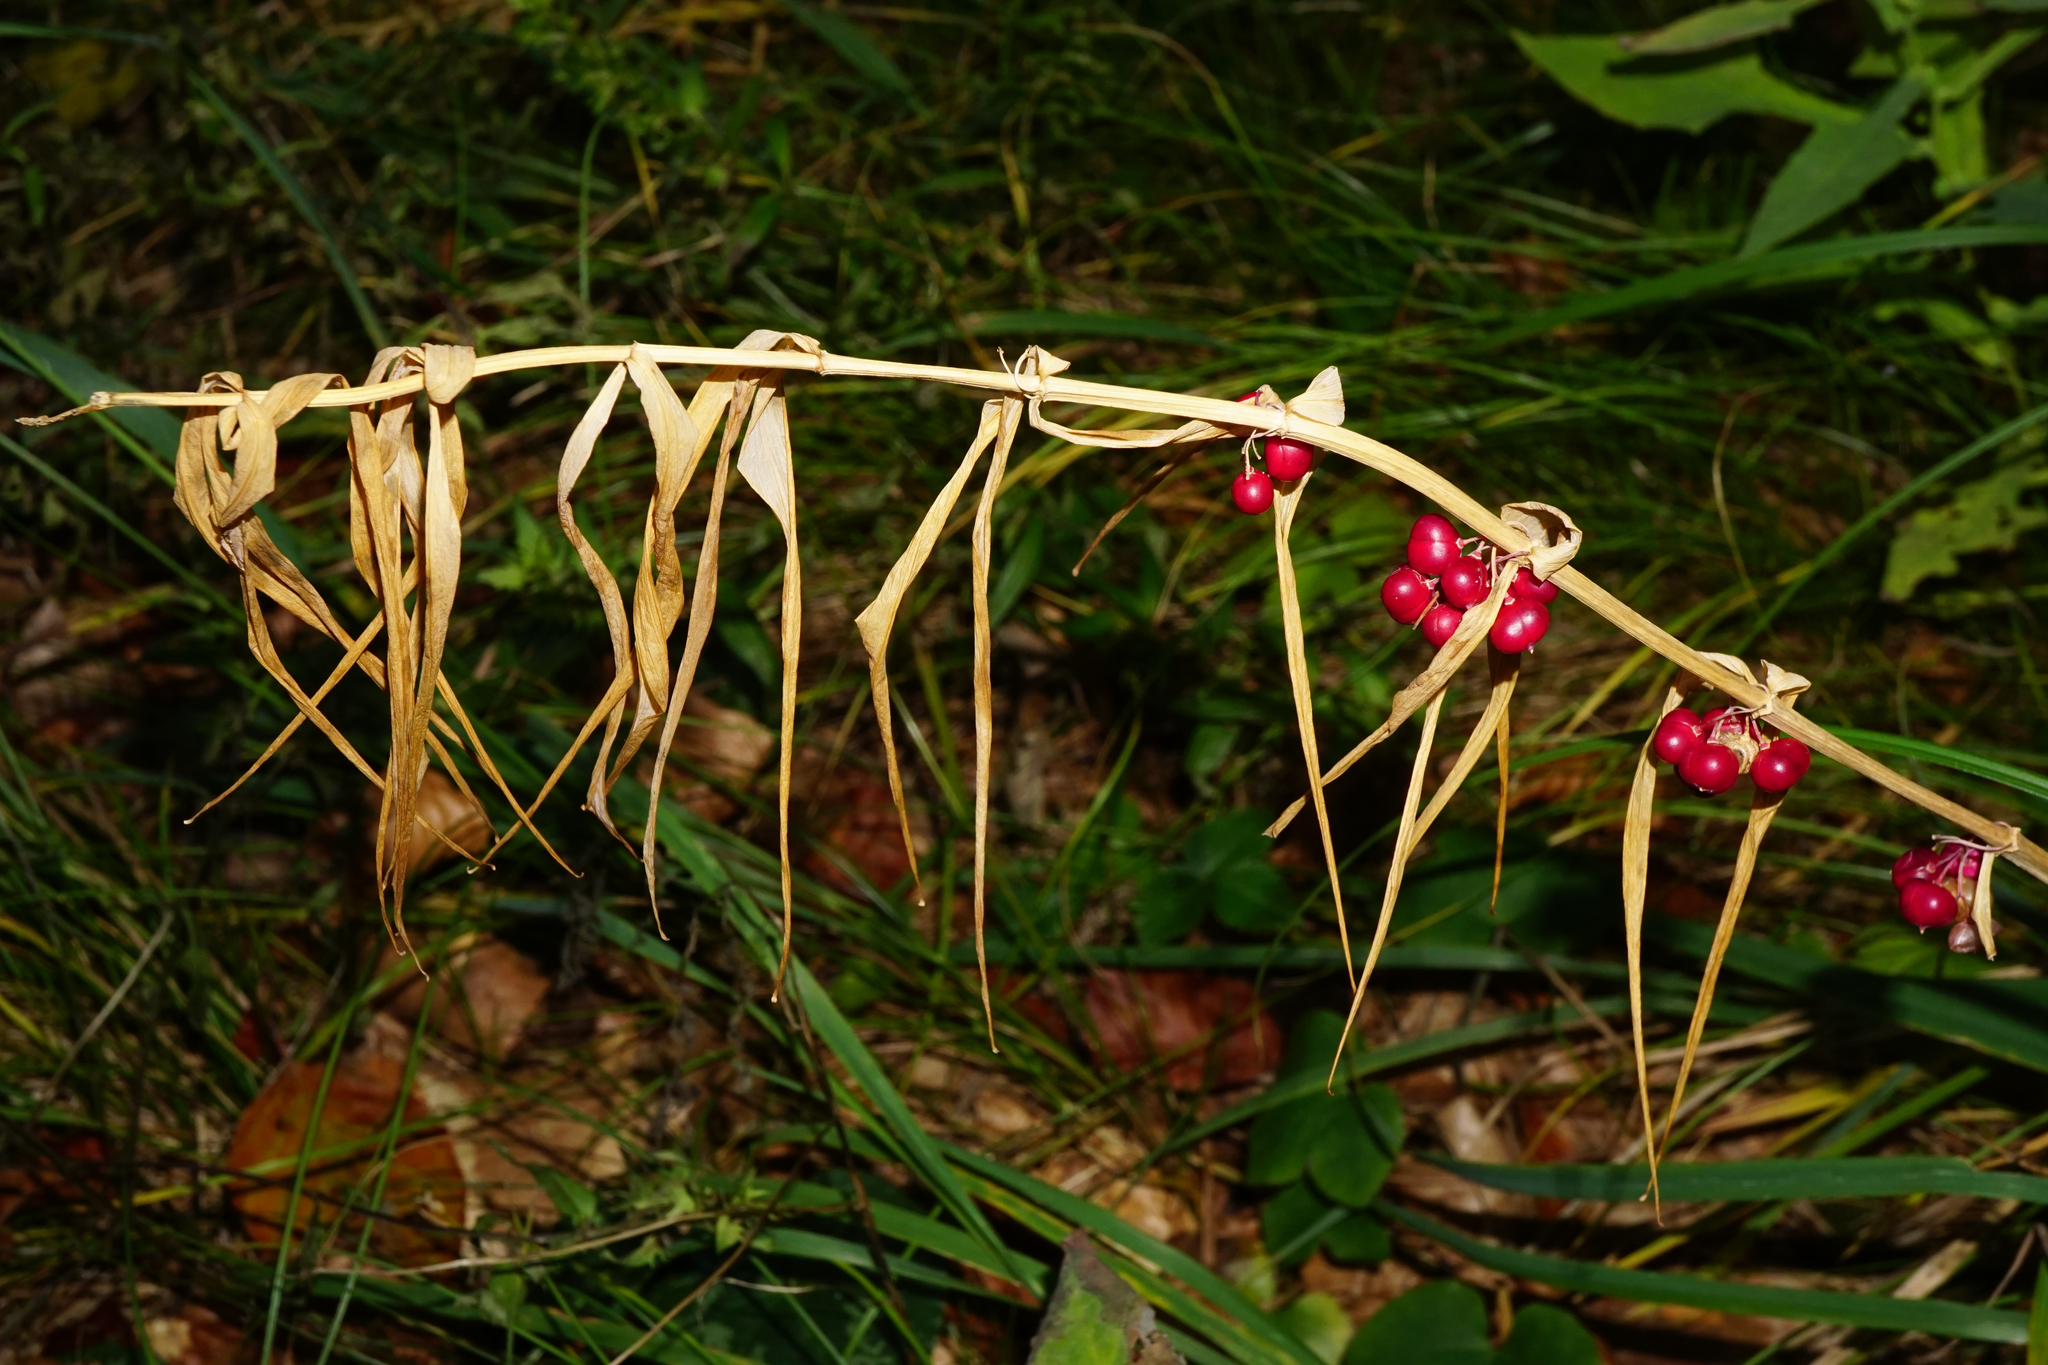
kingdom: Plantae
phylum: Tracheophyta
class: Liliopsida
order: Asparagales
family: Asparagaceae
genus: Polygonatum
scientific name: Polygonatum verticillatum
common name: Whorled solomon's-seal
